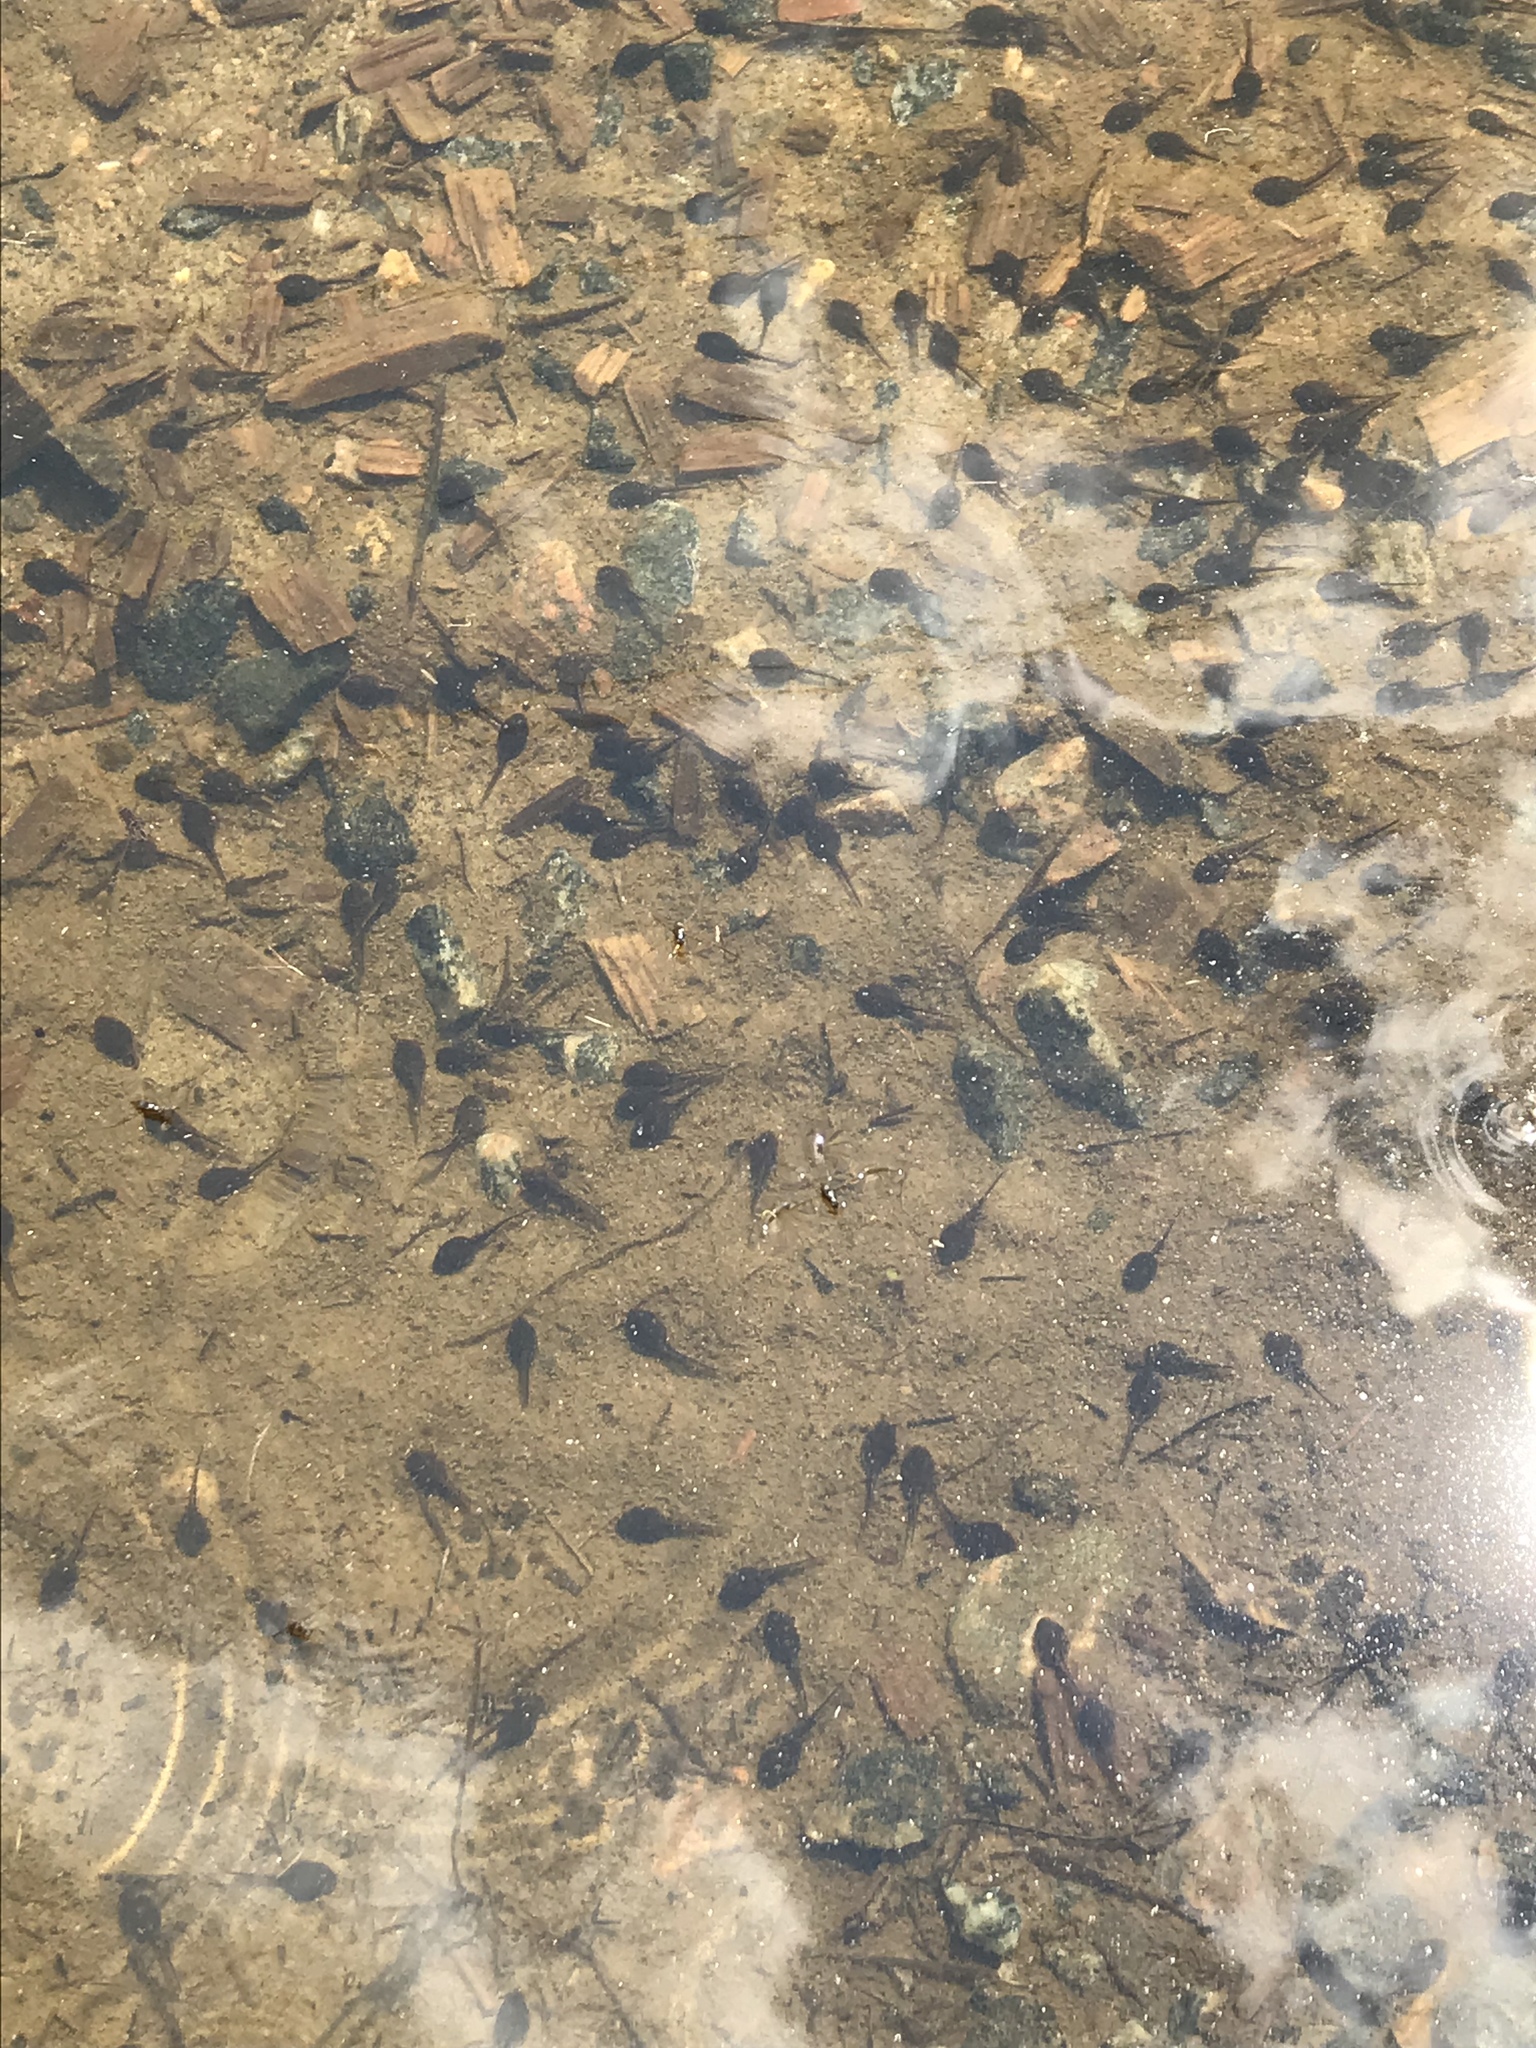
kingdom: Animalia
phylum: Chordata
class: Amphibia
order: Anura
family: Bufonidae
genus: Anaxyrus
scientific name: Anaxyrus americanus
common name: American toad
